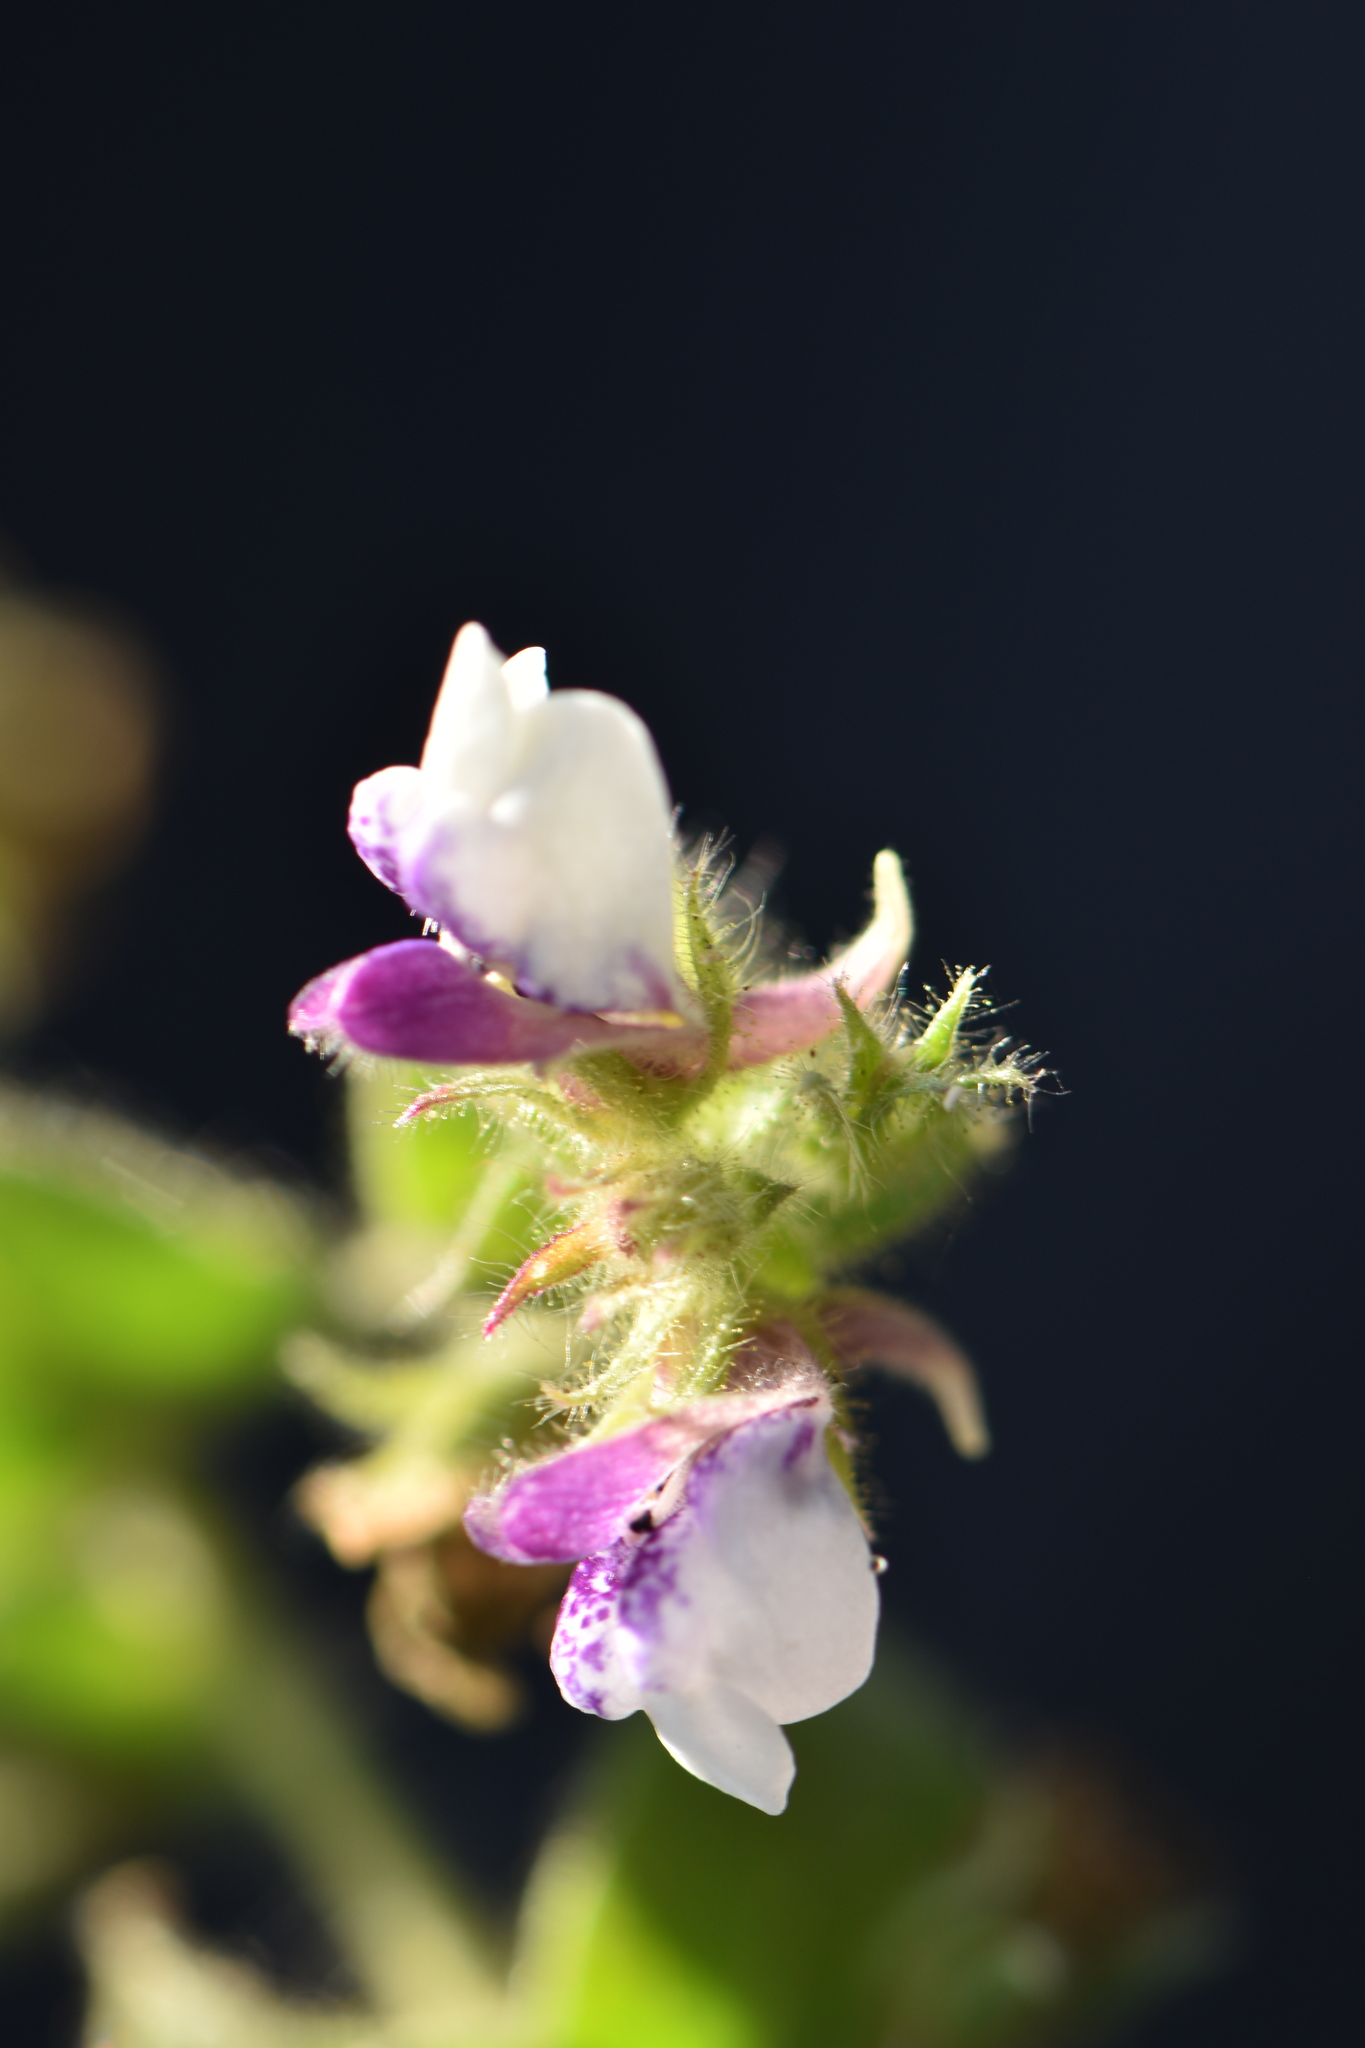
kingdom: Plantae
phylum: Tracheophyta
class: Magnoliopsida
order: Lamiales
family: Plantaginaceae
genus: Kickxia
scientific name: Kickxia lanigera
